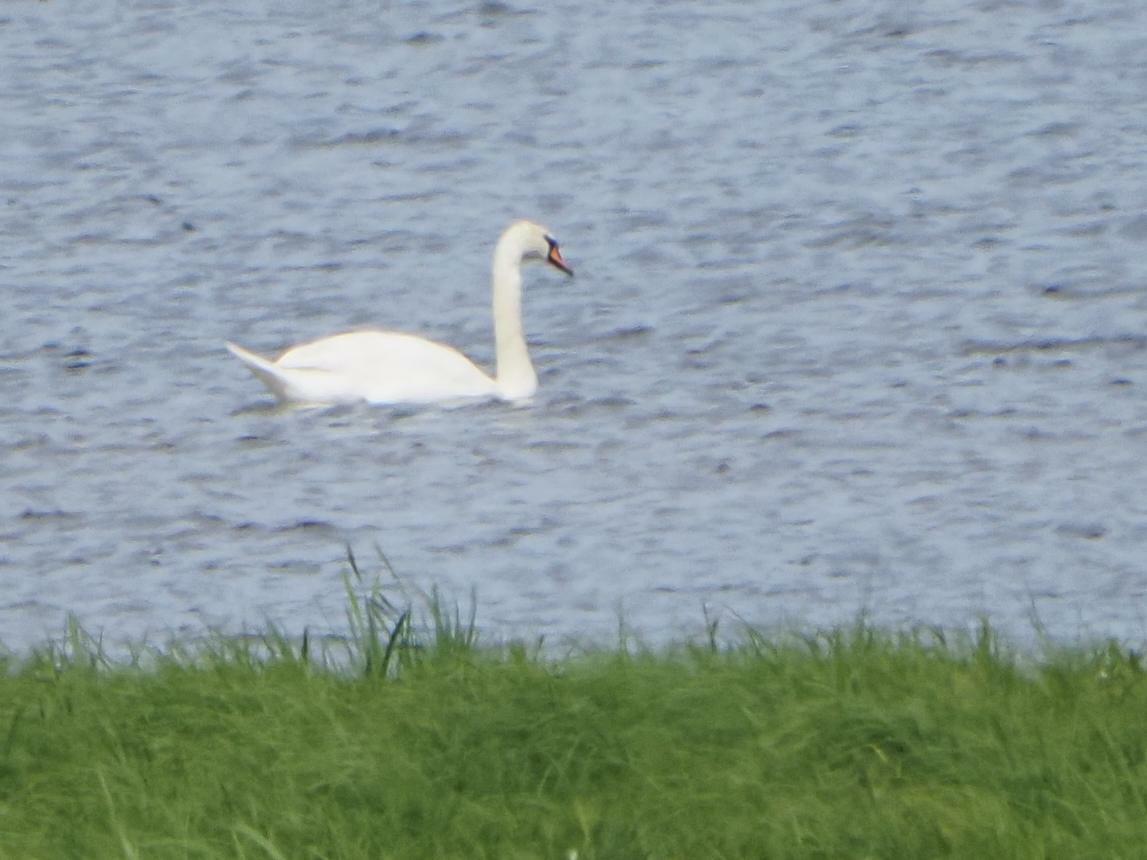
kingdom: Animalia
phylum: Chordata
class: Aves
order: Anseriformes
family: Anatidae
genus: Cygnus
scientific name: Cygnus olor
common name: Mute swan
